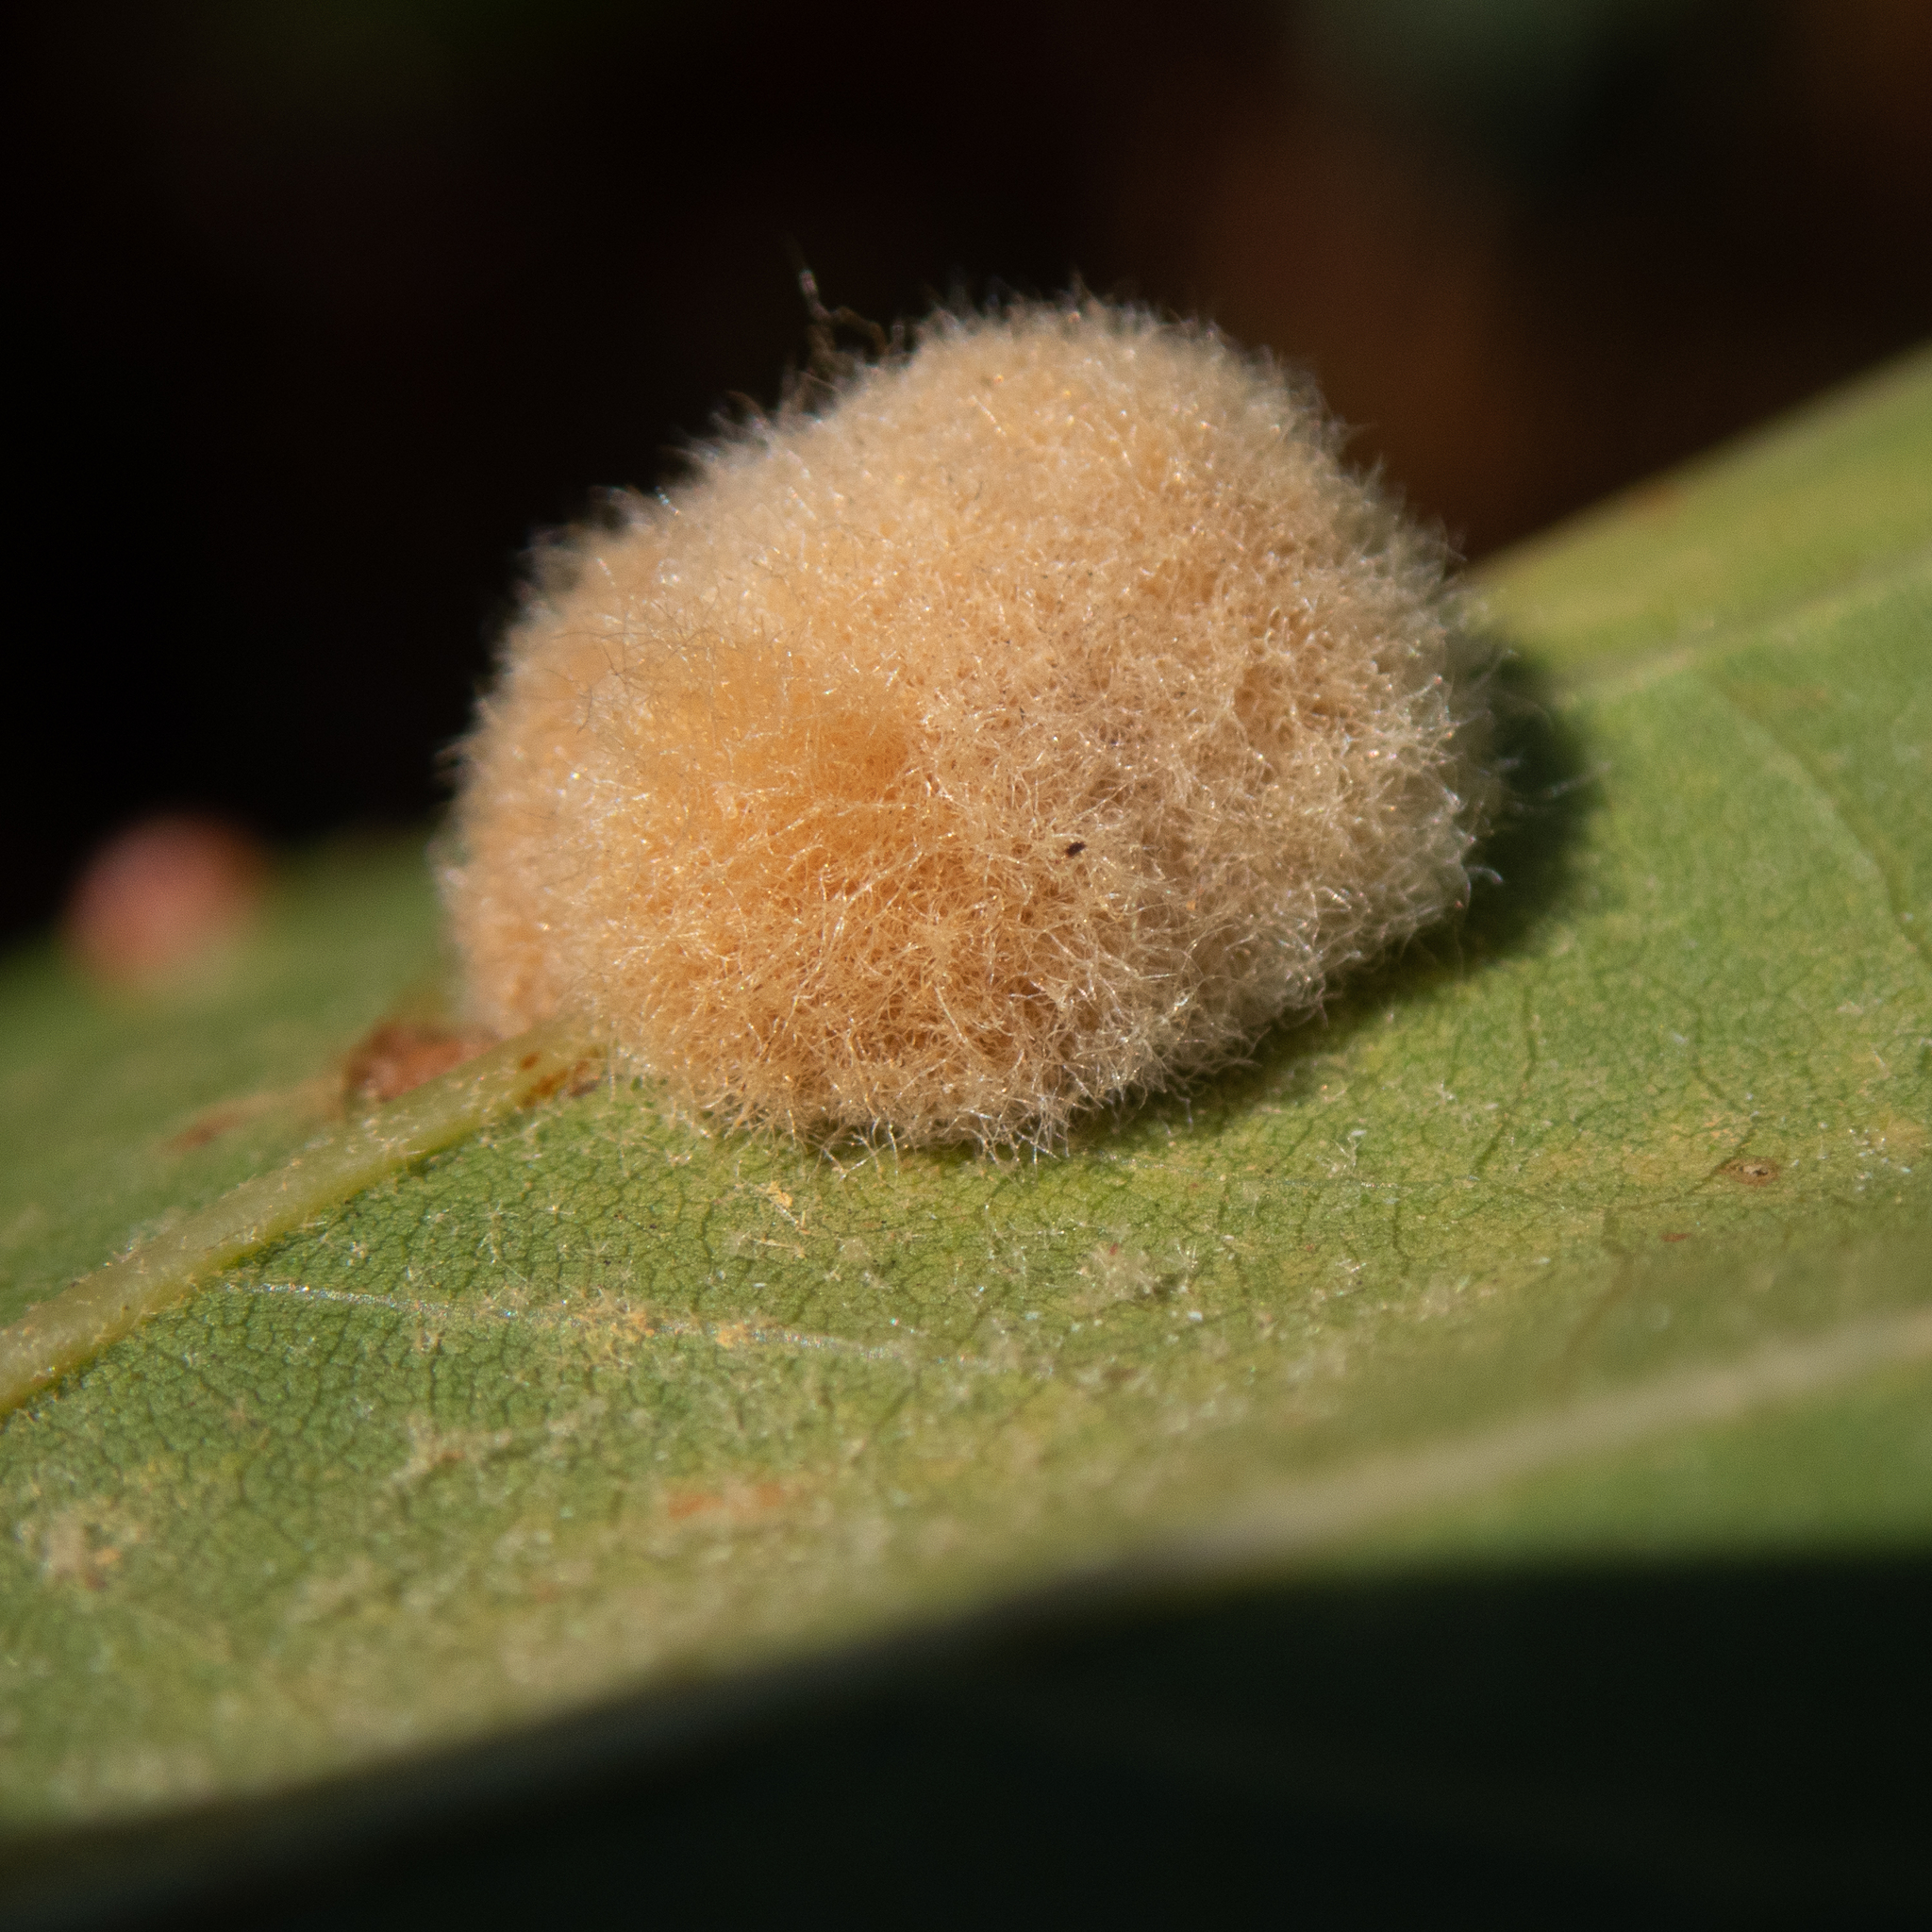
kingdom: Animalia
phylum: Arthropoda
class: Insecta
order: Hymenoptera
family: Cynipidae
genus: Callirhytis
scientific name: Callirhytis
